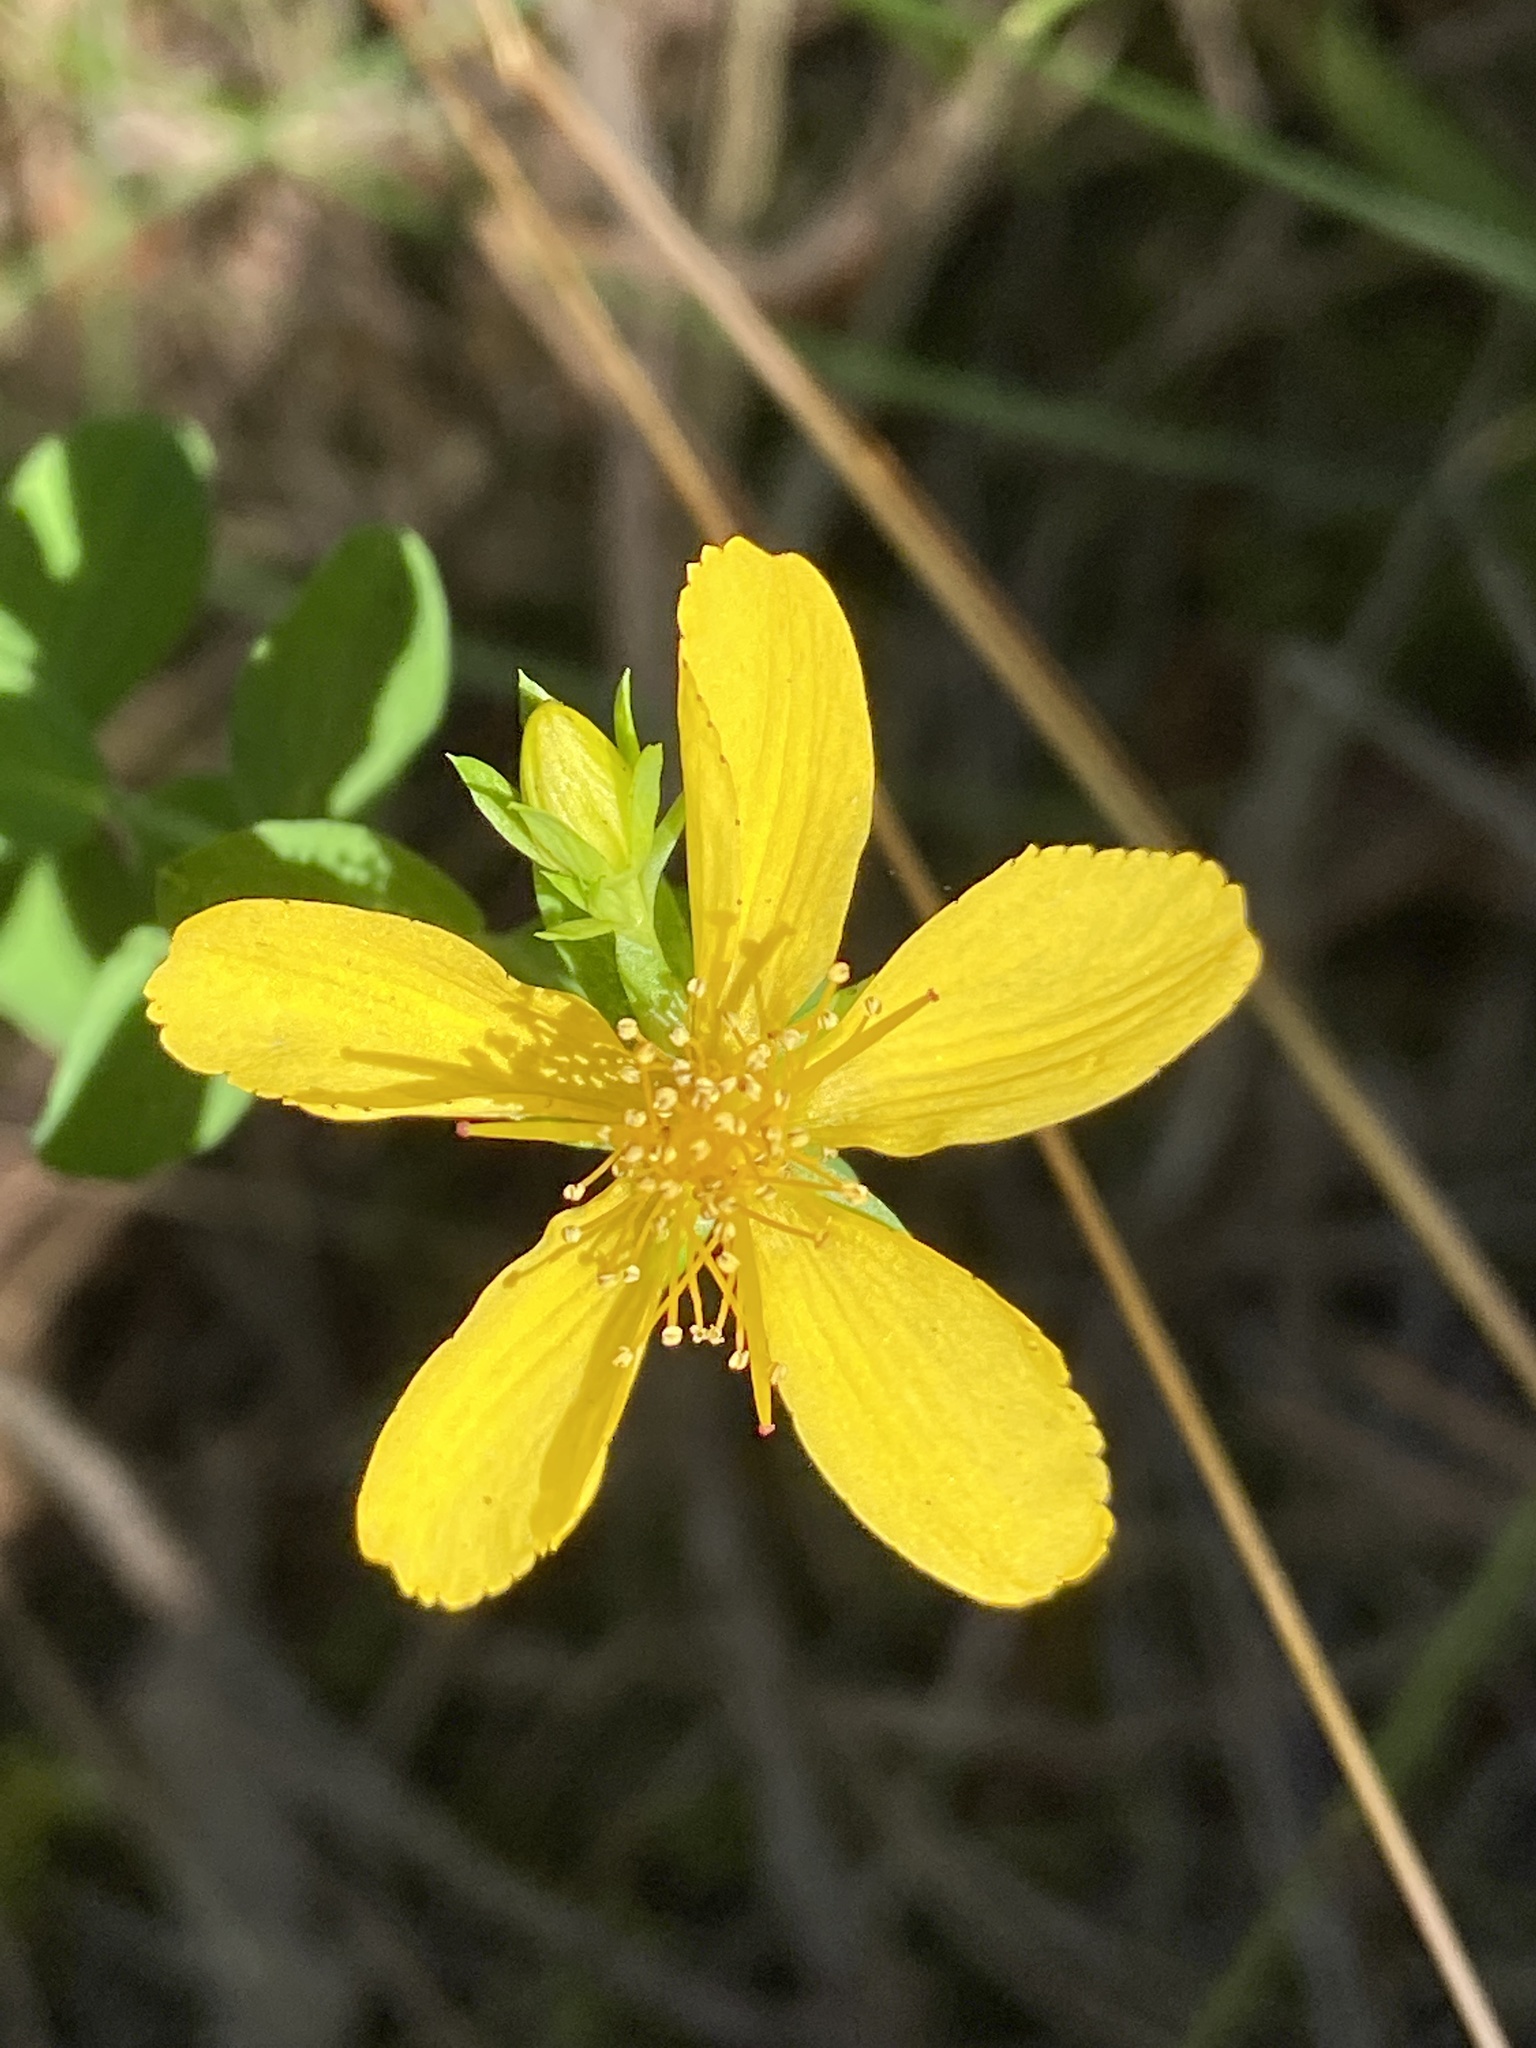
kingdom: Plantae
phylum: Tracheophyta
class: Magnoliopsida
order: Malpighiales
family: Hypericaceae
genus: Hypericum
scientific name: Hypericum perforatum
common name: Common st. johnswort
